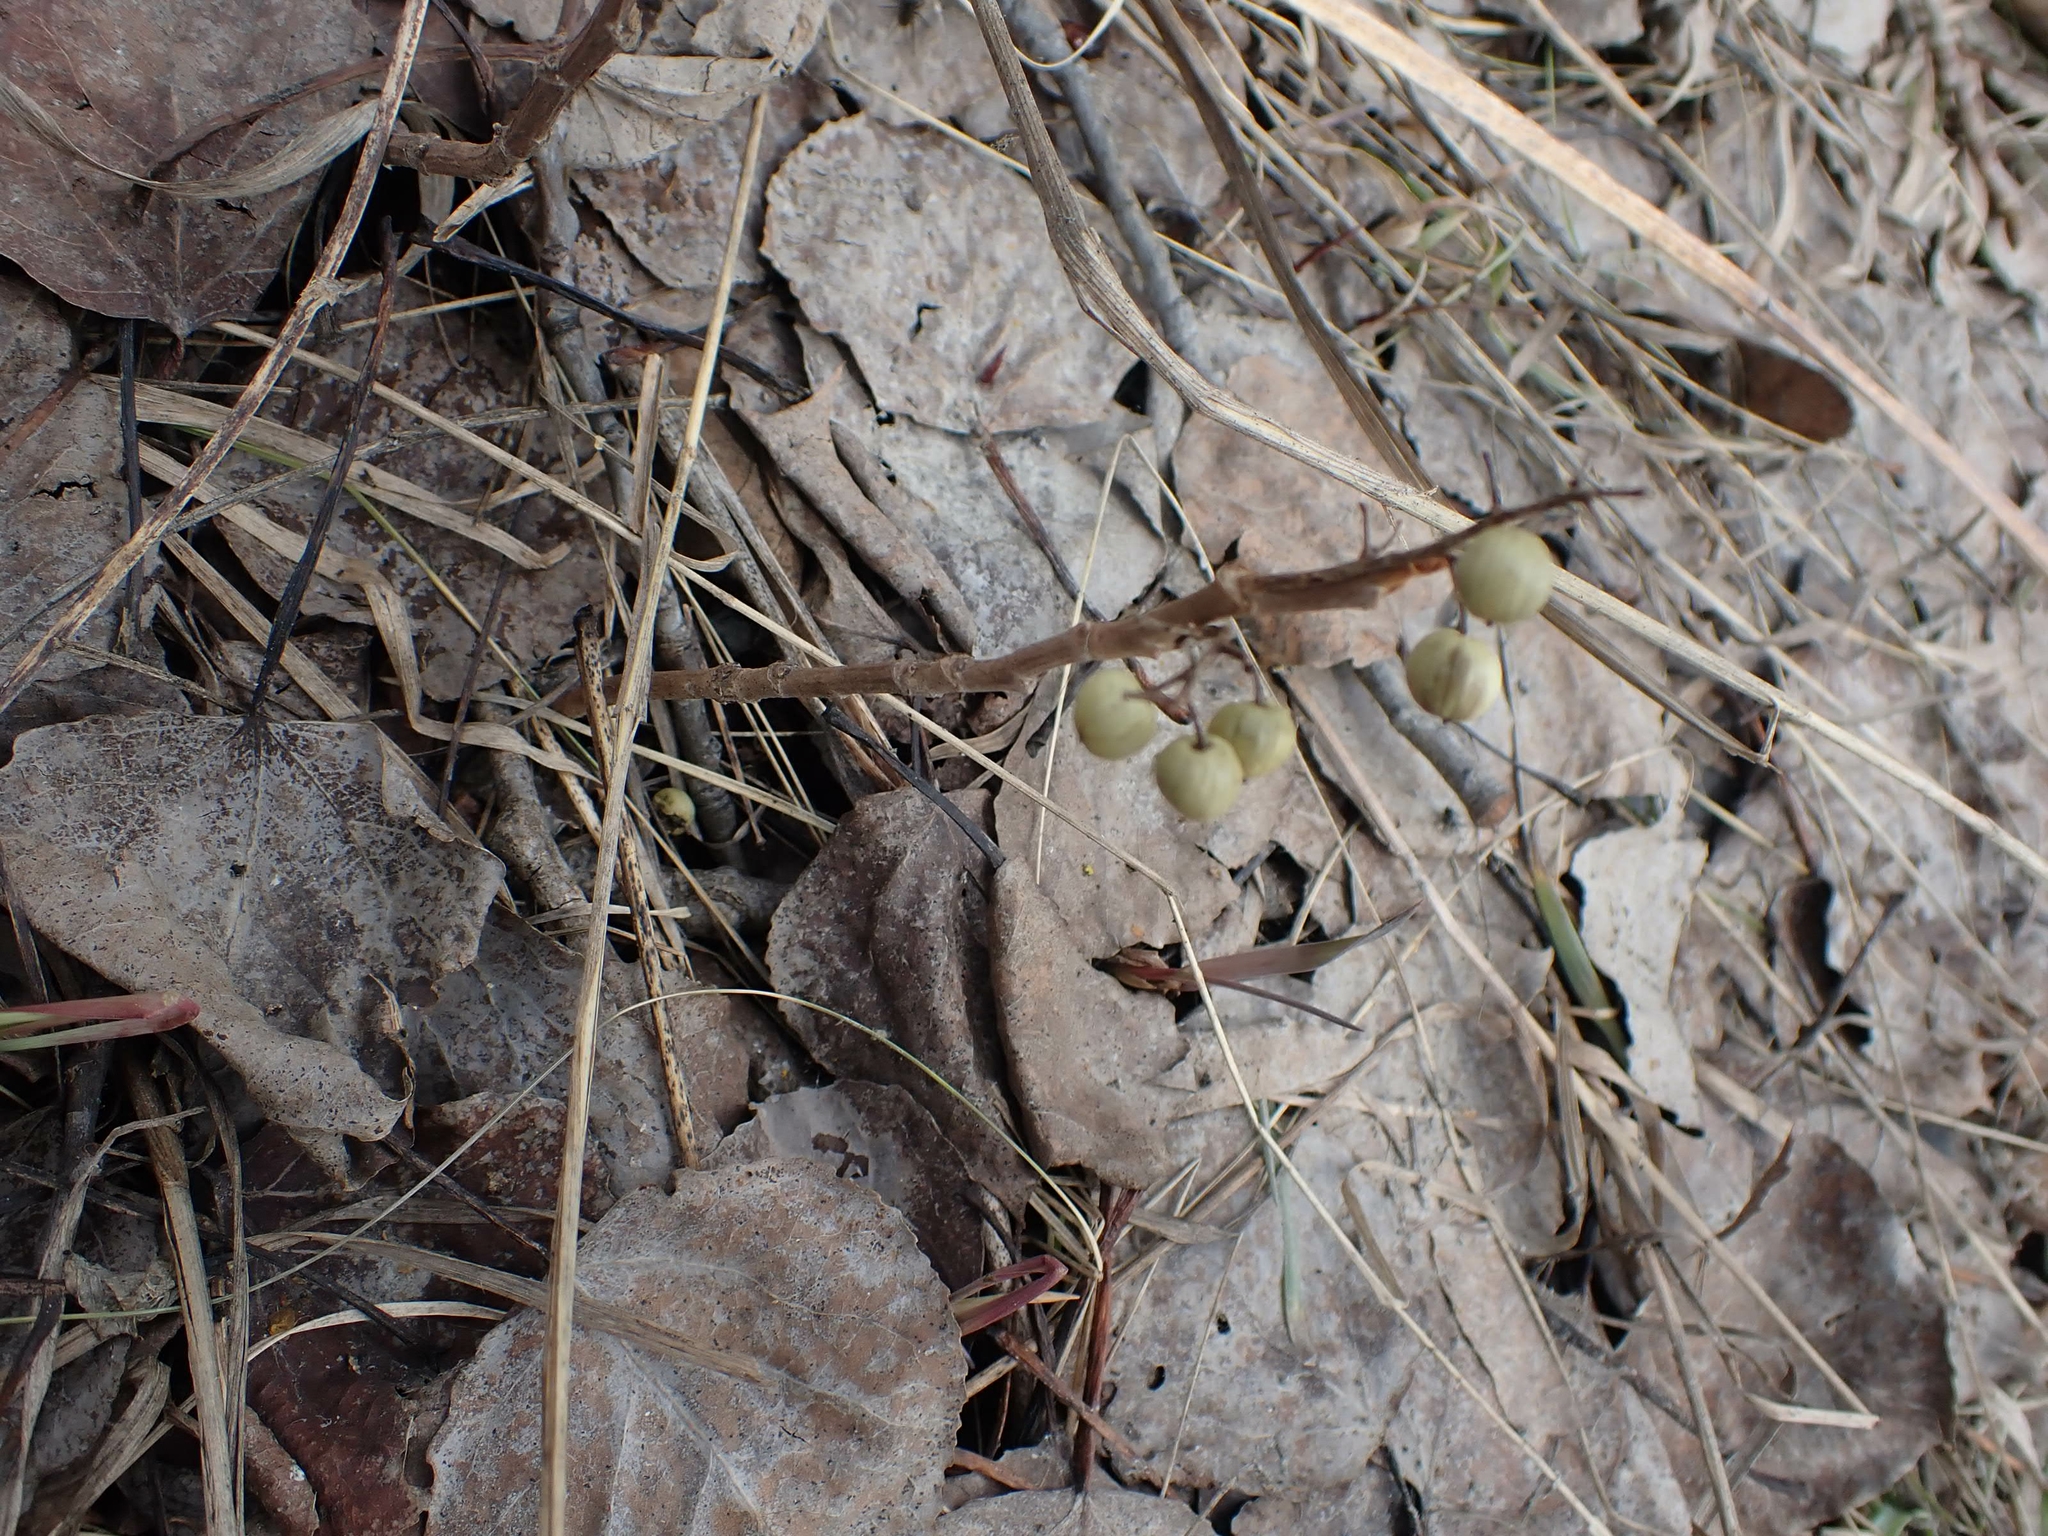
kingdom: Plantae
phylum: Tracheophyta
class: Magnoliopsida
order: Sapindales
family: Anacardiaceae
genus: Toxicodendron
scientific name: Toxicodendron rydbergii
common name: Rydberg's poison-ivy
